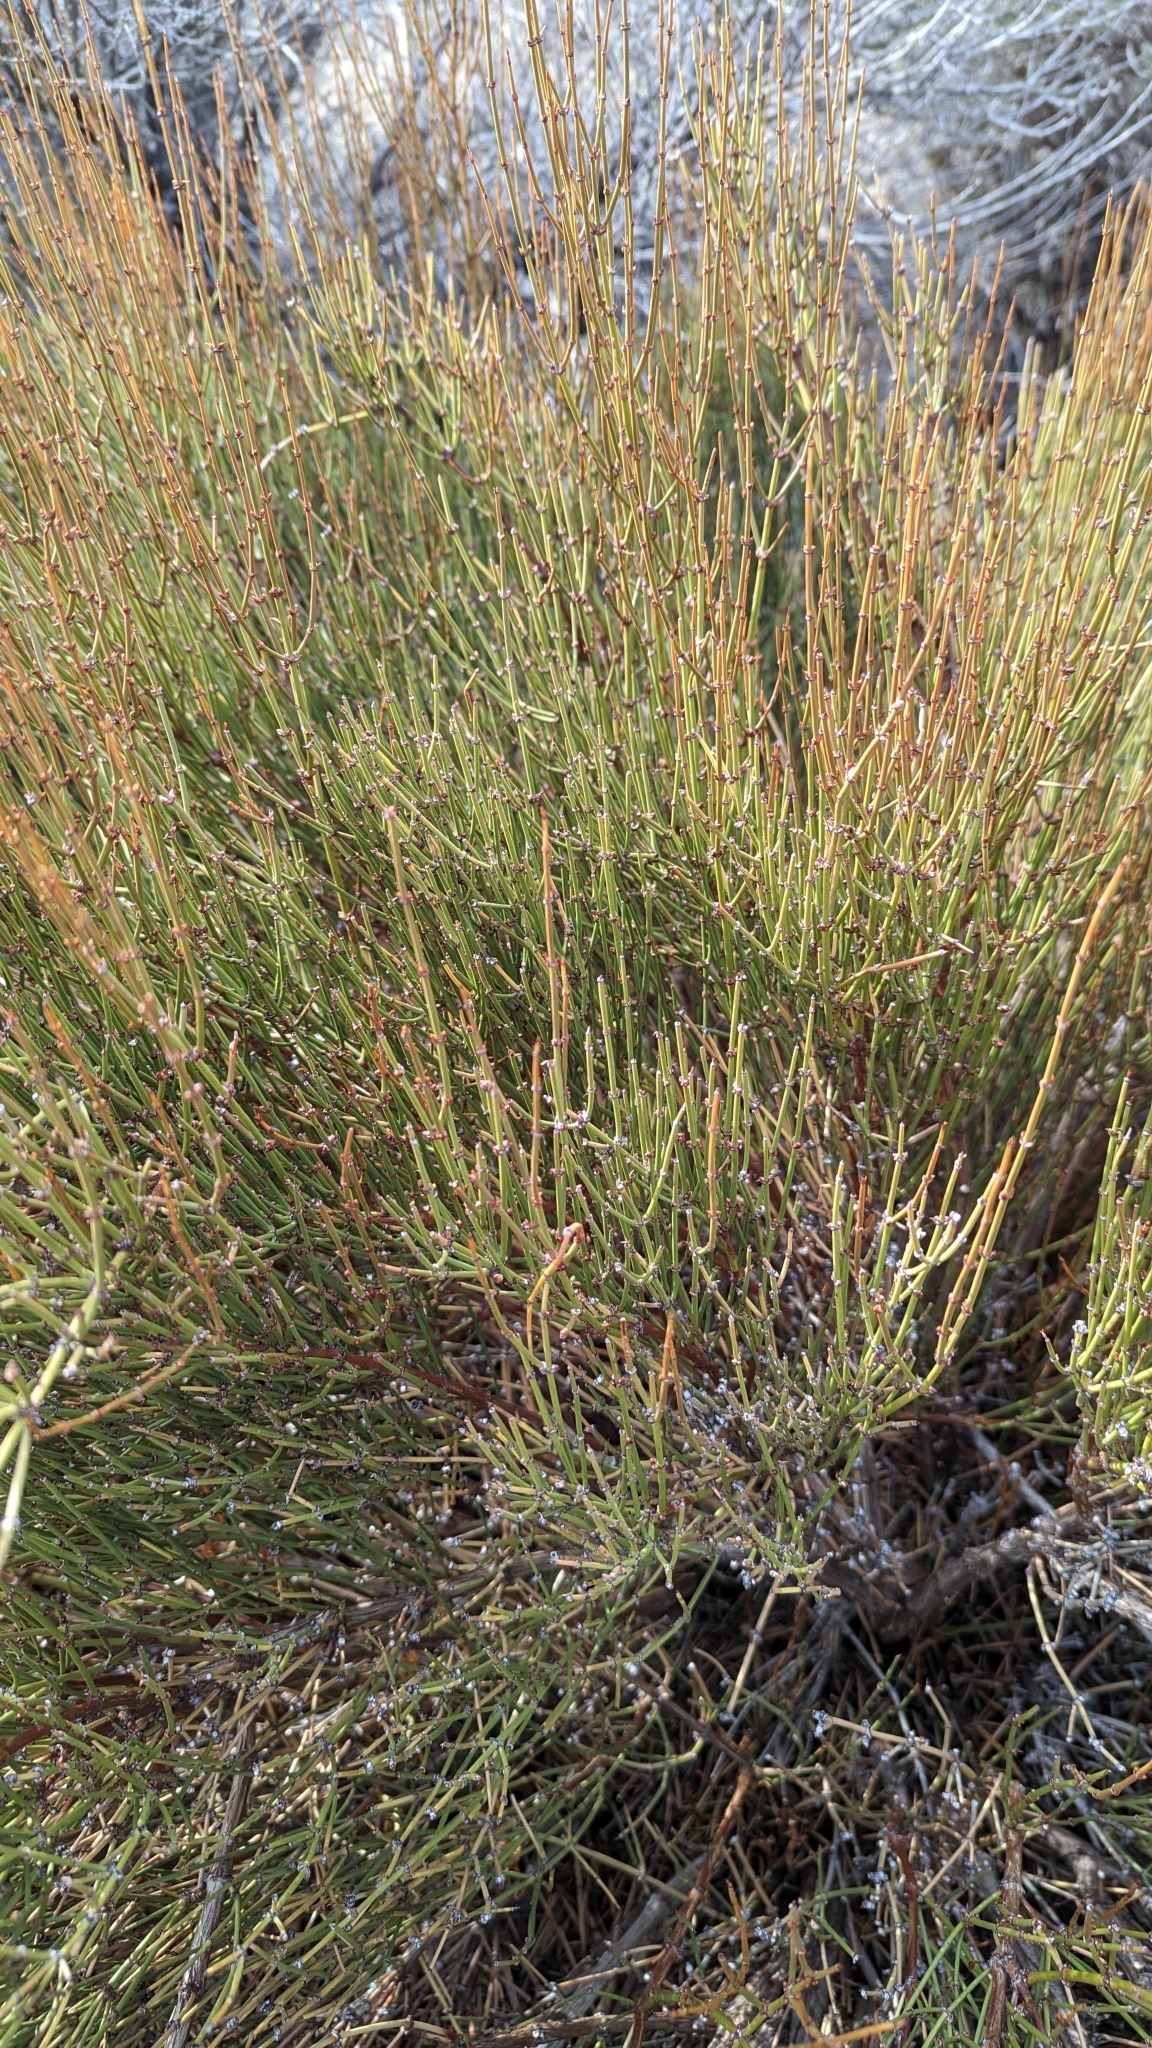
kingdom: Plantae
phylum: Tracheophyta
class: Gnetopsida
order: Ephedrales
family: Ephedraceae
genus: Ephedra
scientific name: Ephedra viridis
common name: Green ephedra
